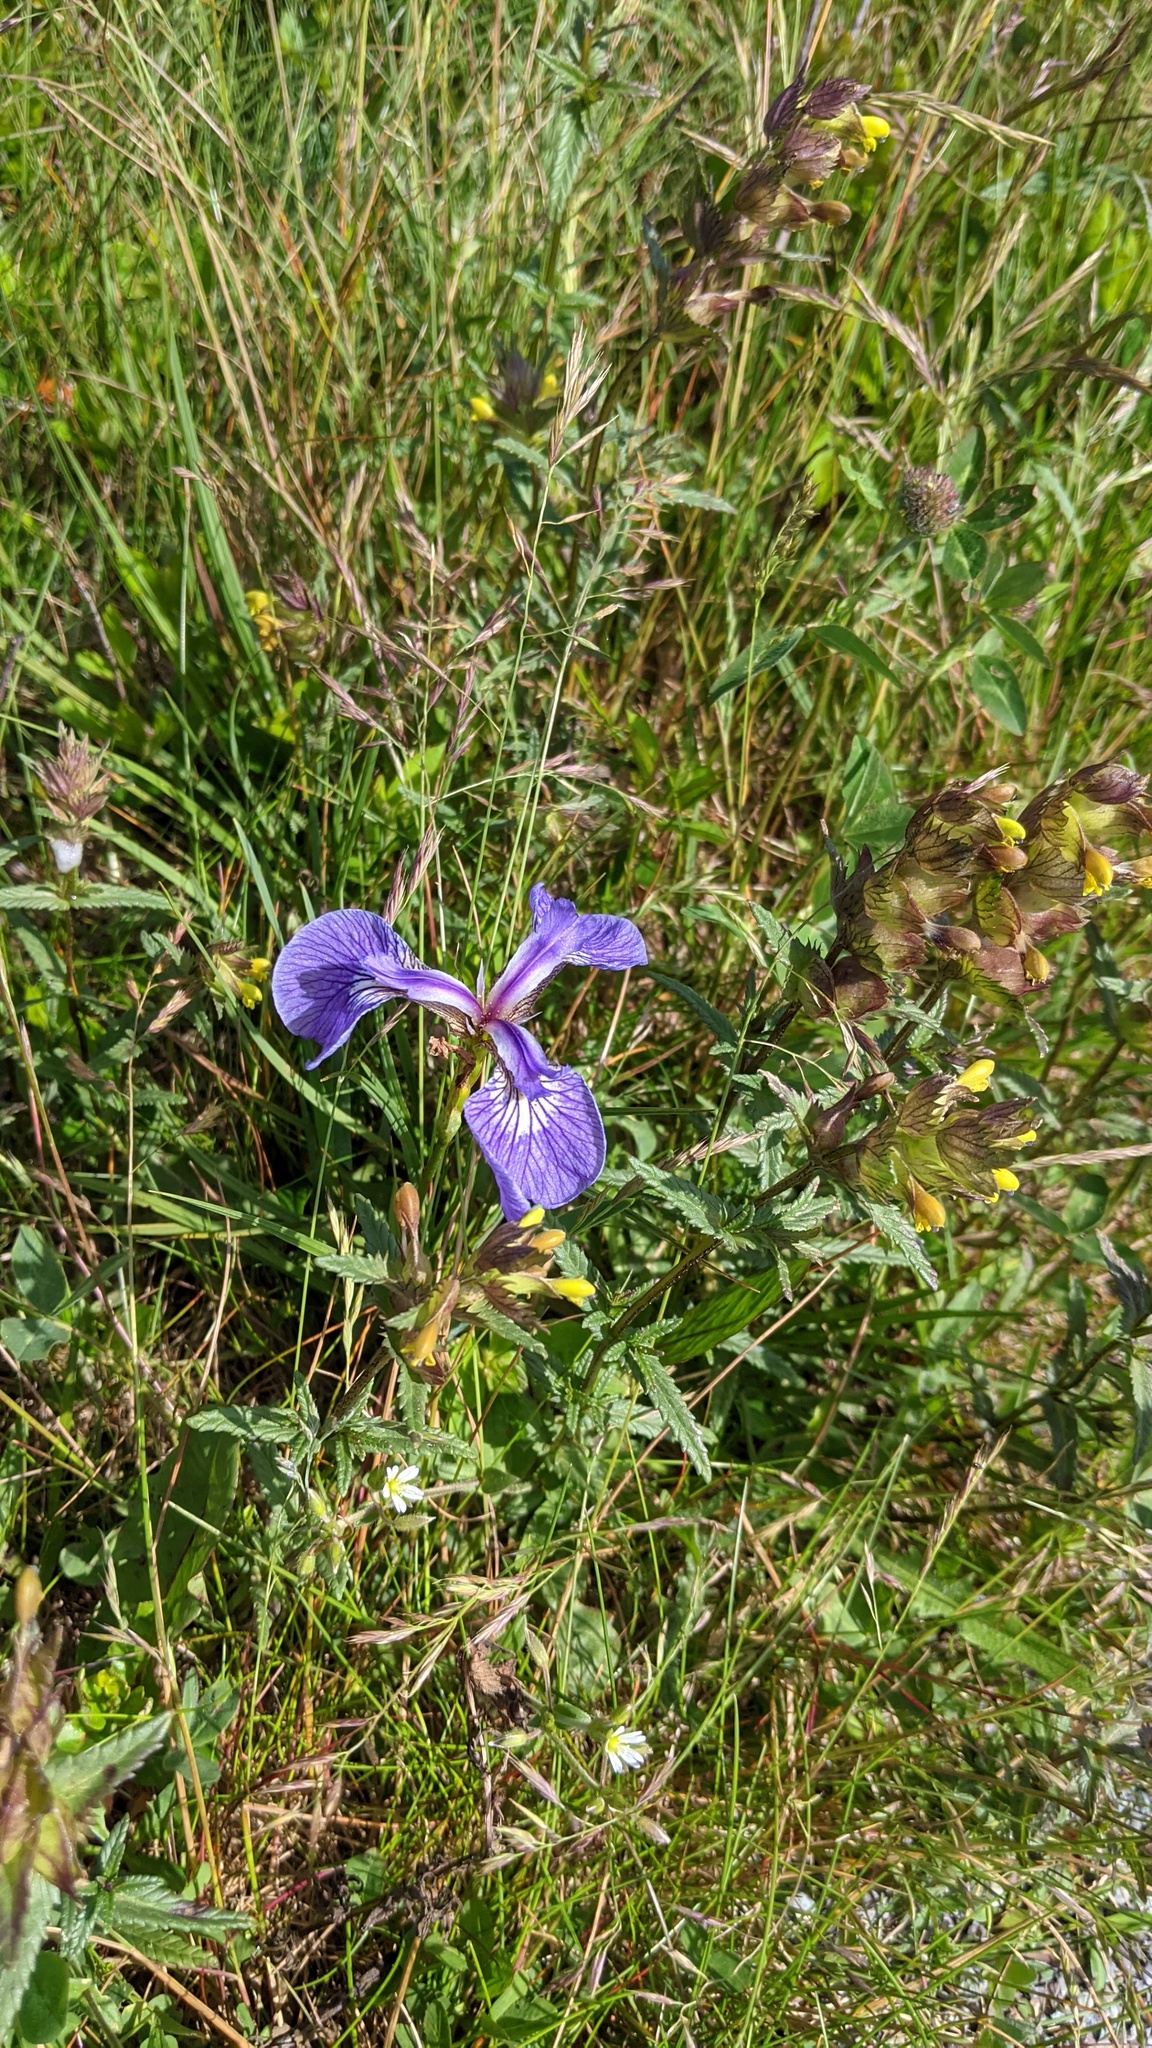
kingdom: Plantae
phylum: Tracheophyta
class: Liliopsida
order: Asparagales
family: Iridaceae
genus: Iris
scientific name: Iris hookeri
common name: Canada beach-head iris
